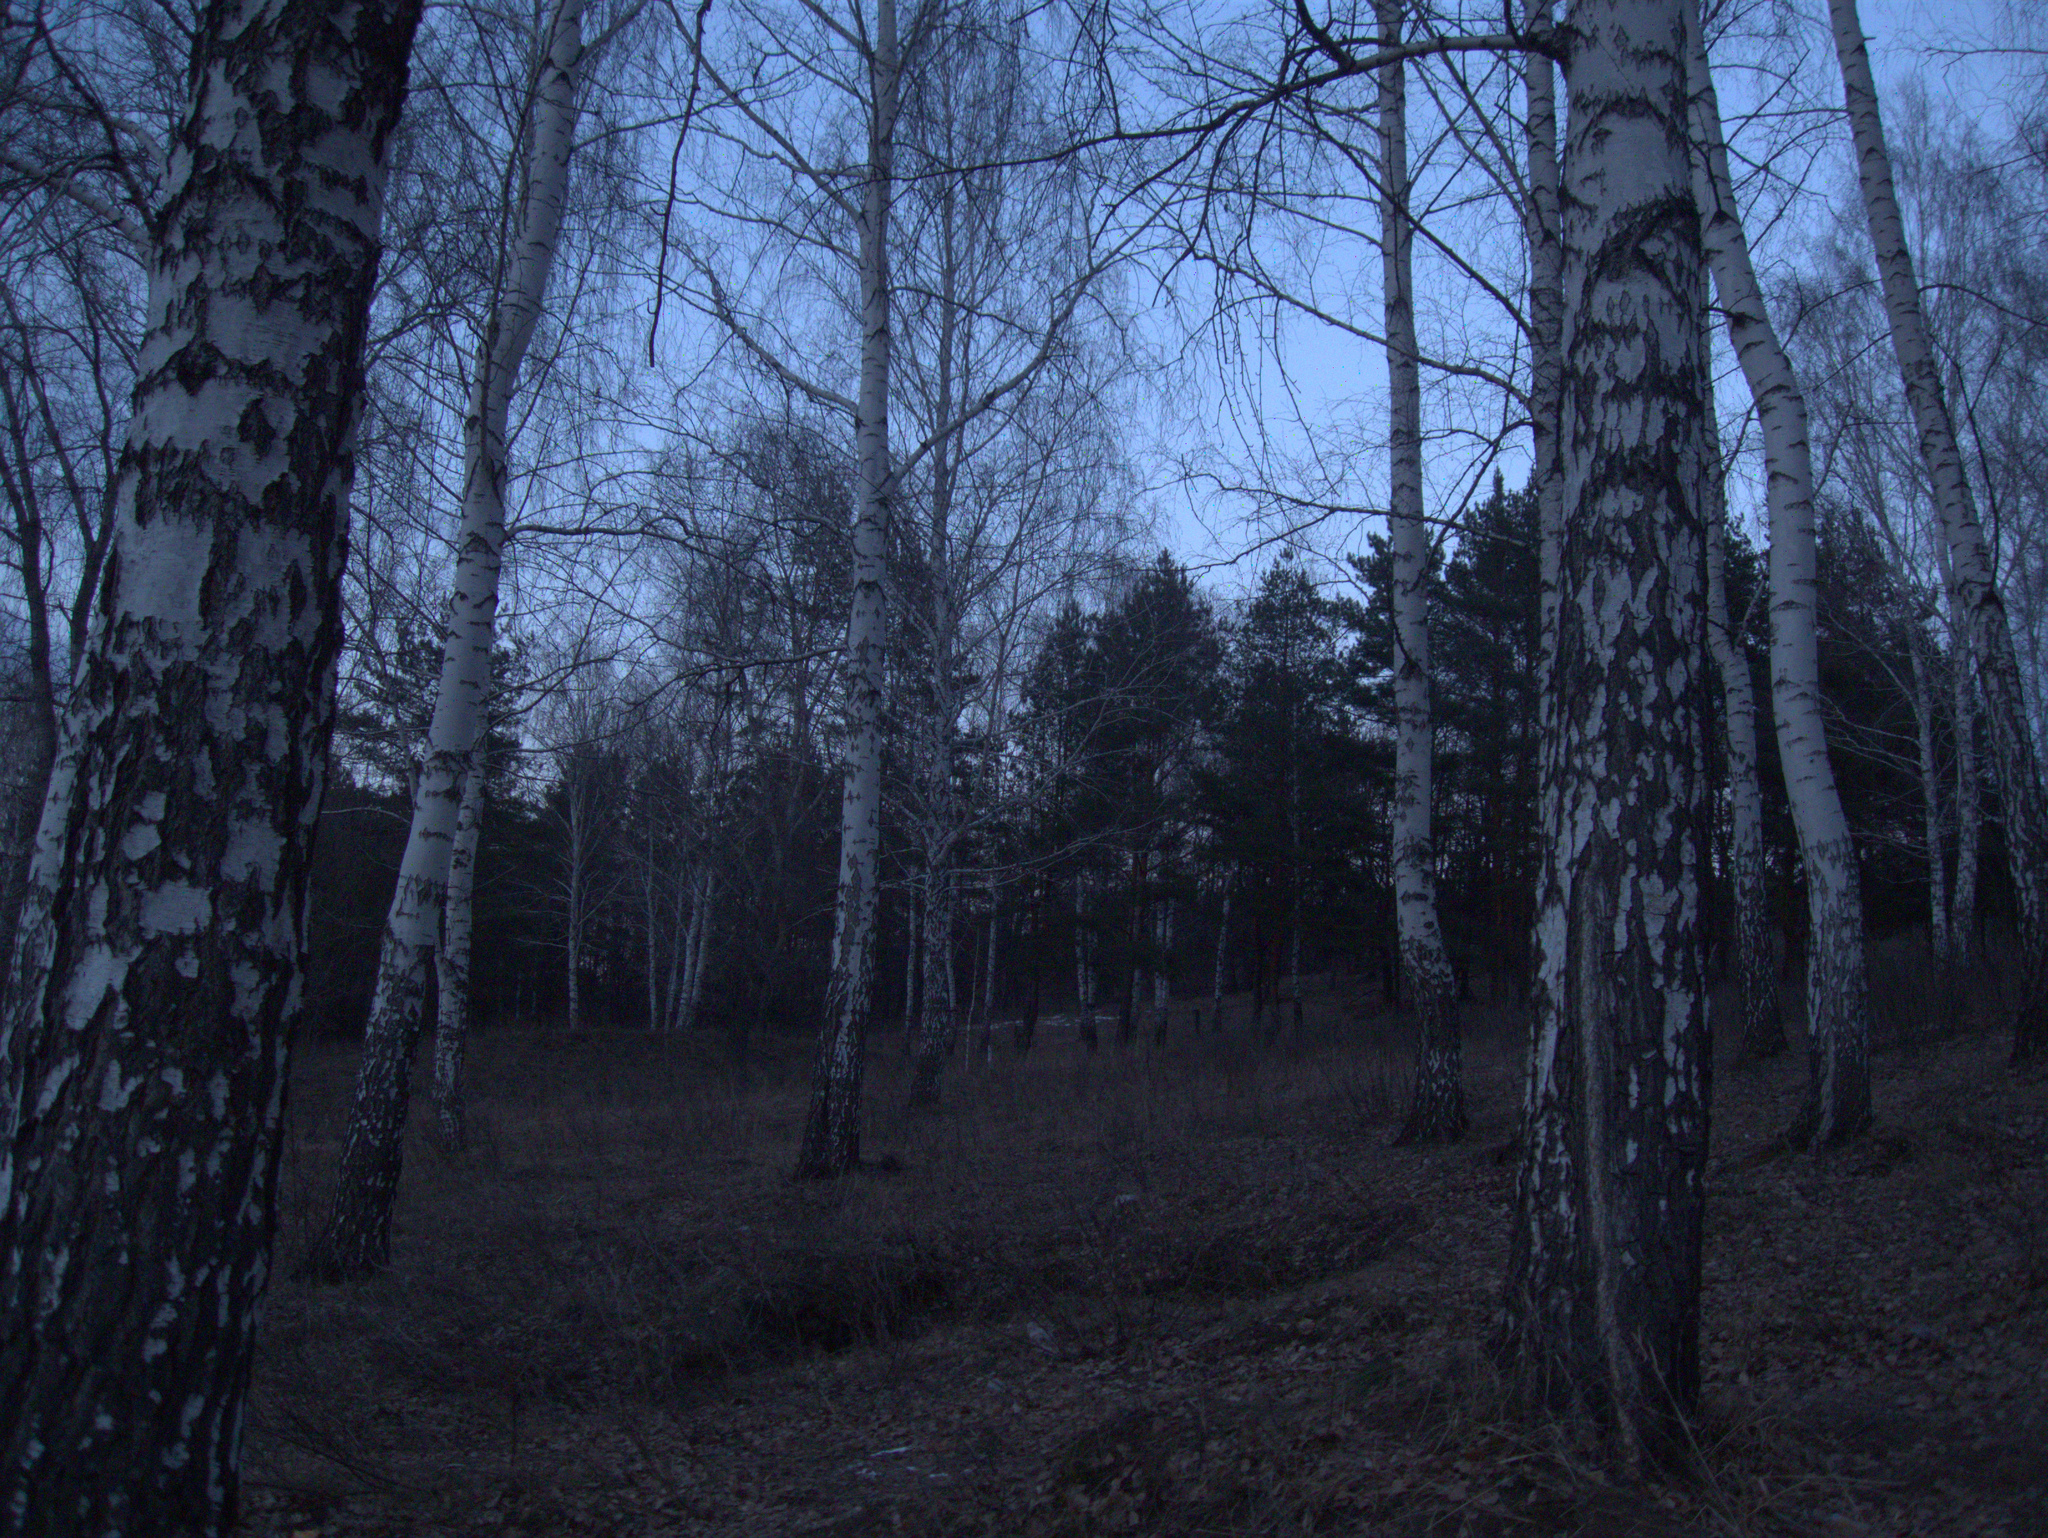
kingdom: Plantae
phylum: Tracheophyta
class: Pinopsida
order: Pinales
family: Pinaceae
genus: Pinus
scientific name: Pinus sylvestris
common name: Scots pine
